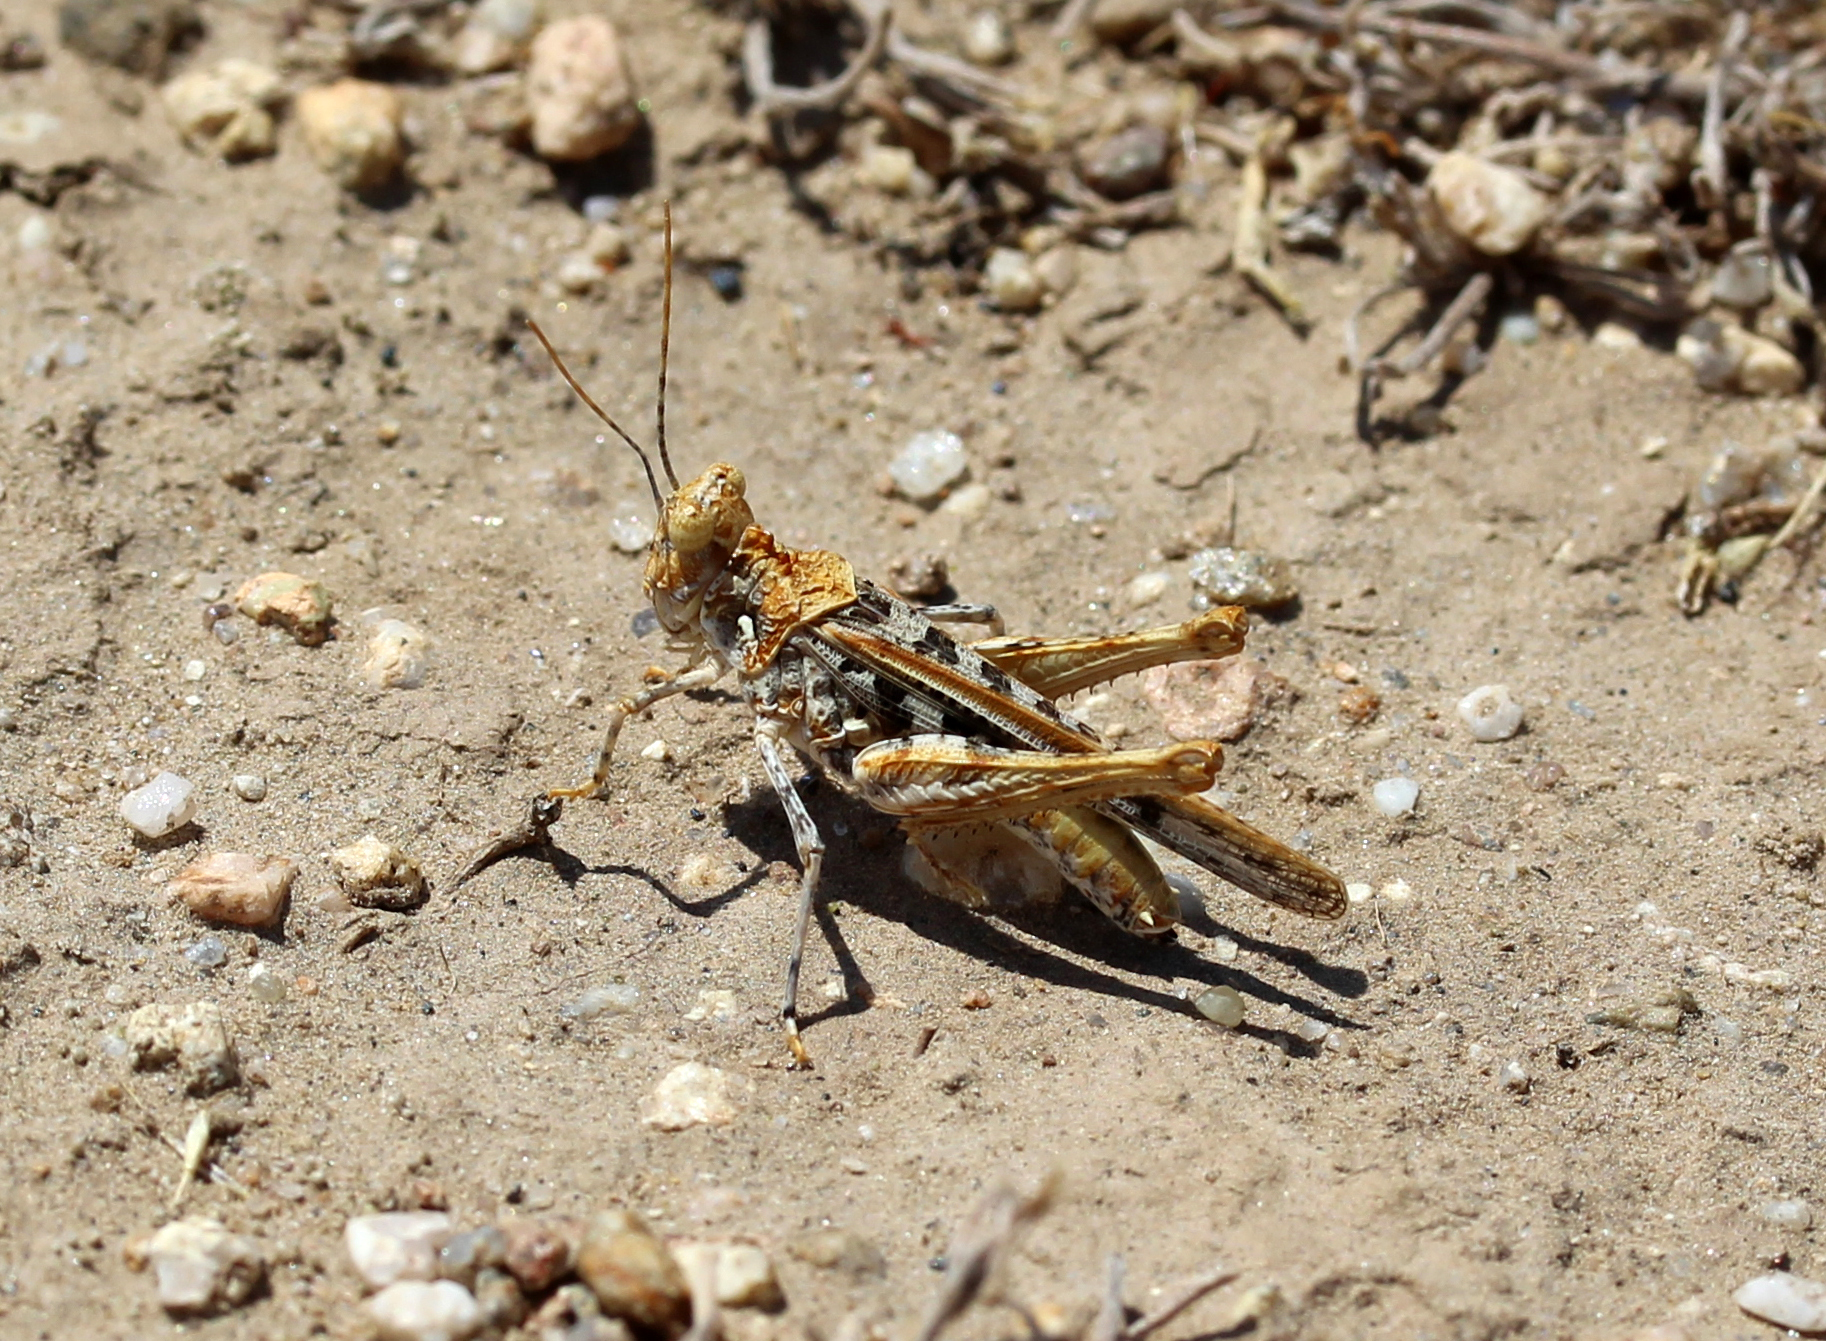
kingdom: Animalia
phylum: Arthropoda
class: Insecta
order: Orthoptera
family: Acrididae
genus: Derotmema
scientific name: Derotmema saussureanum
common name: Saussure's desert grasshopper
